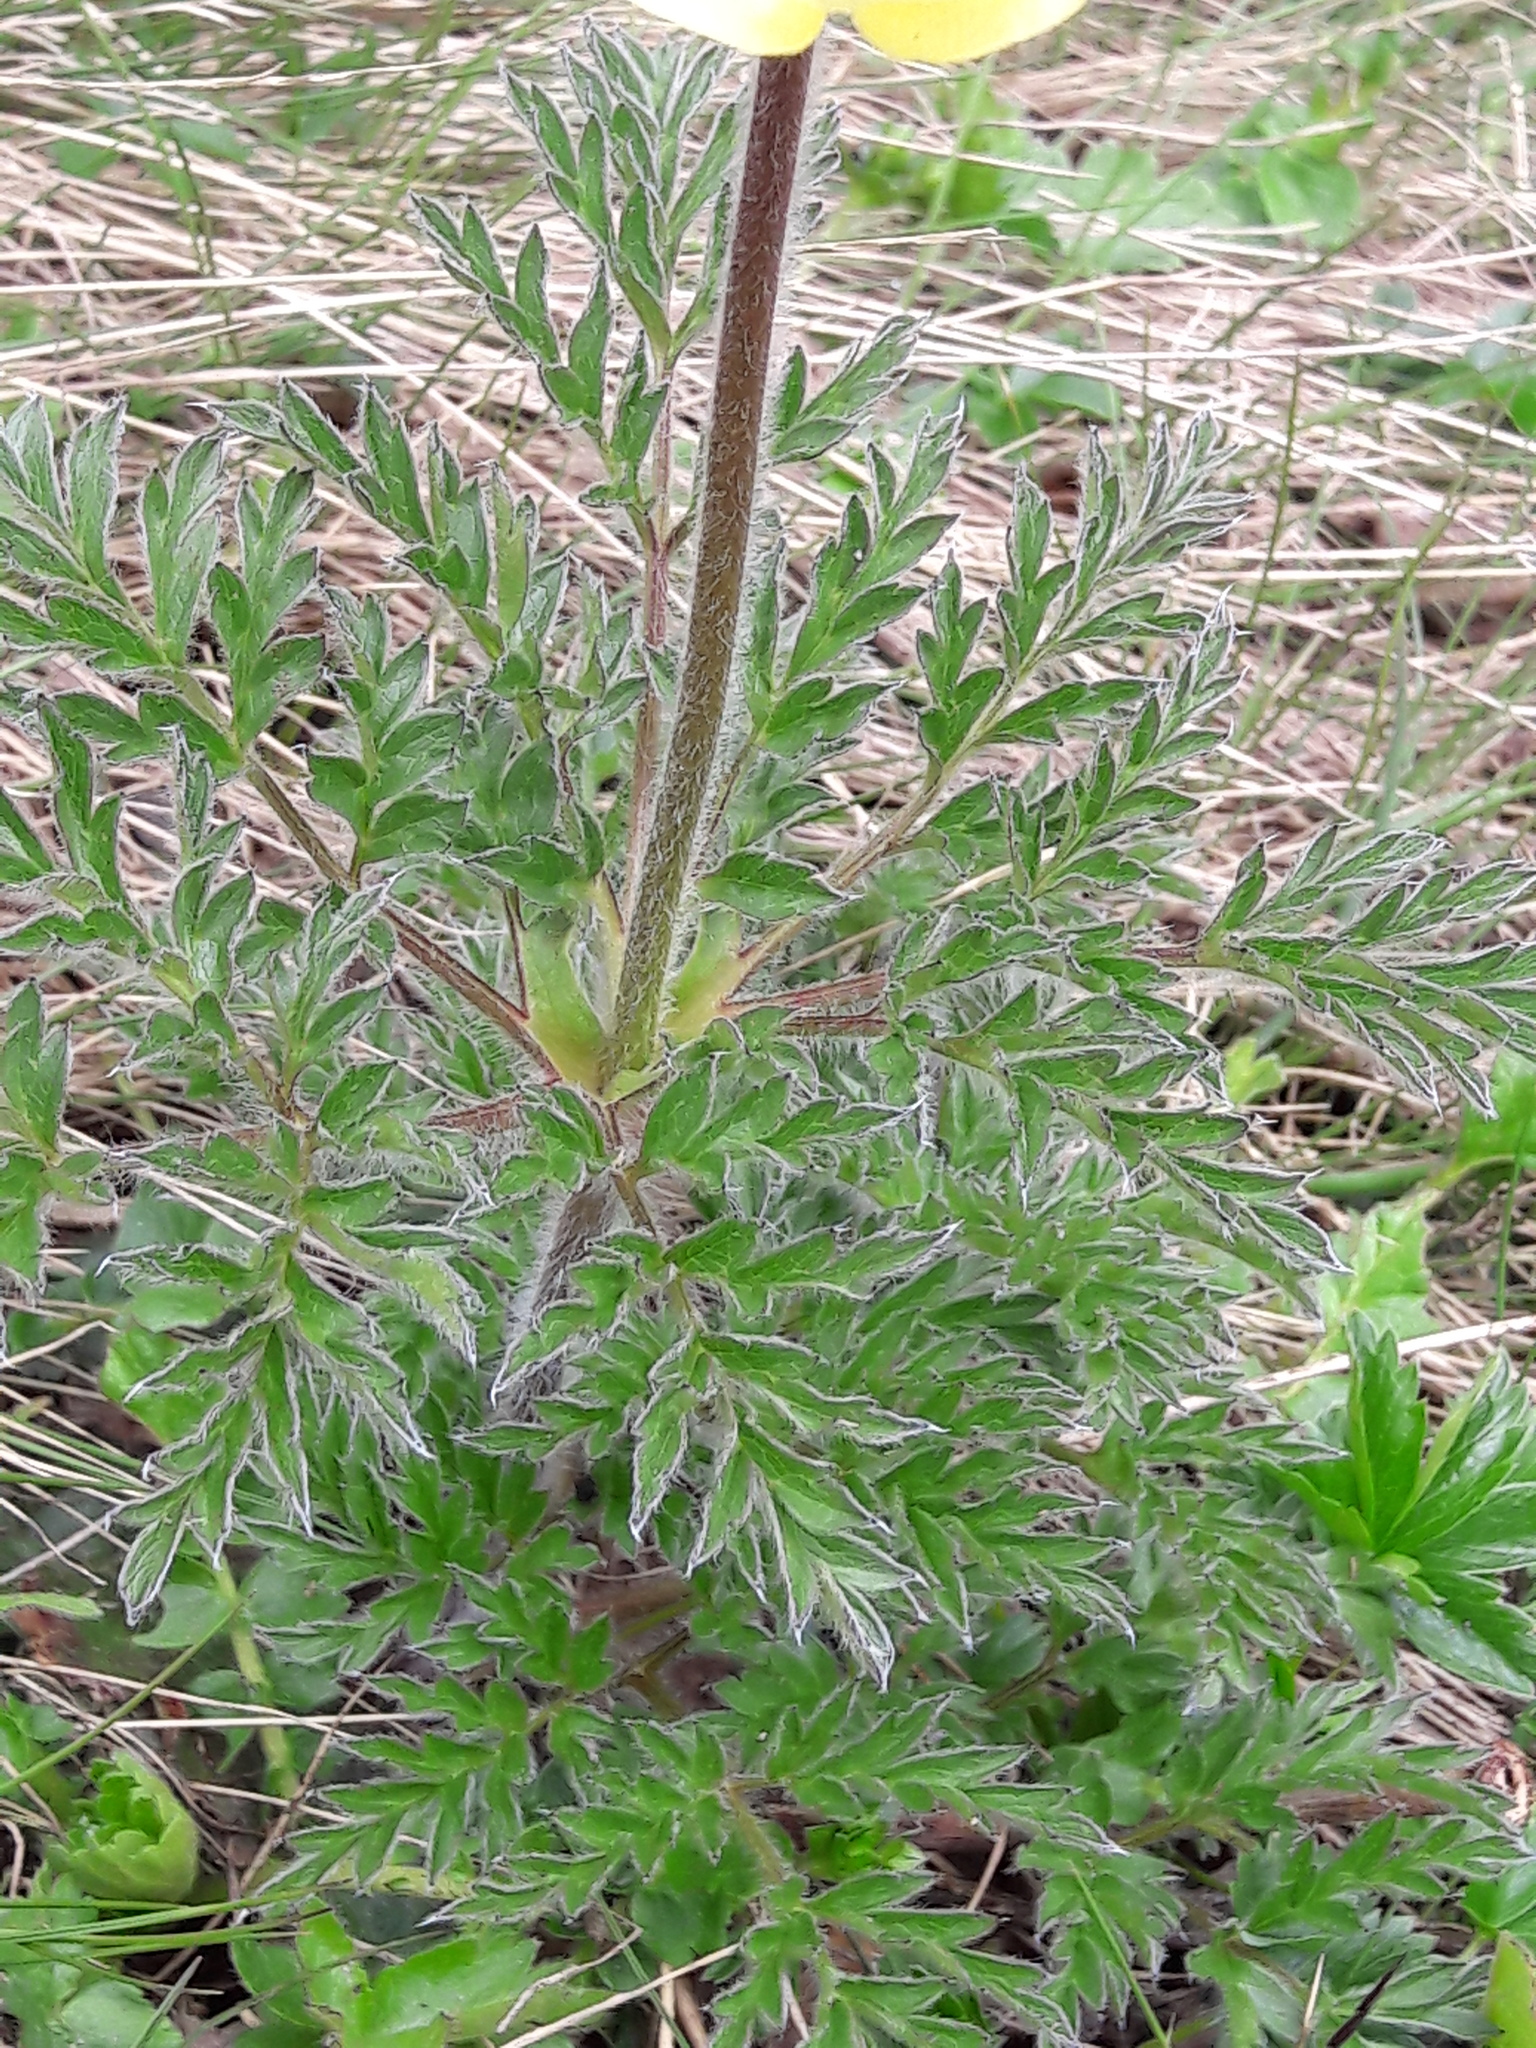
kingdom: Plantae
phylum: Tracheophyta
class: Magnoliopsida
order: Ranunculales
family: Ranunculaceae
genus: Pulsatilla
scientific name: Pulsatilla alpina
